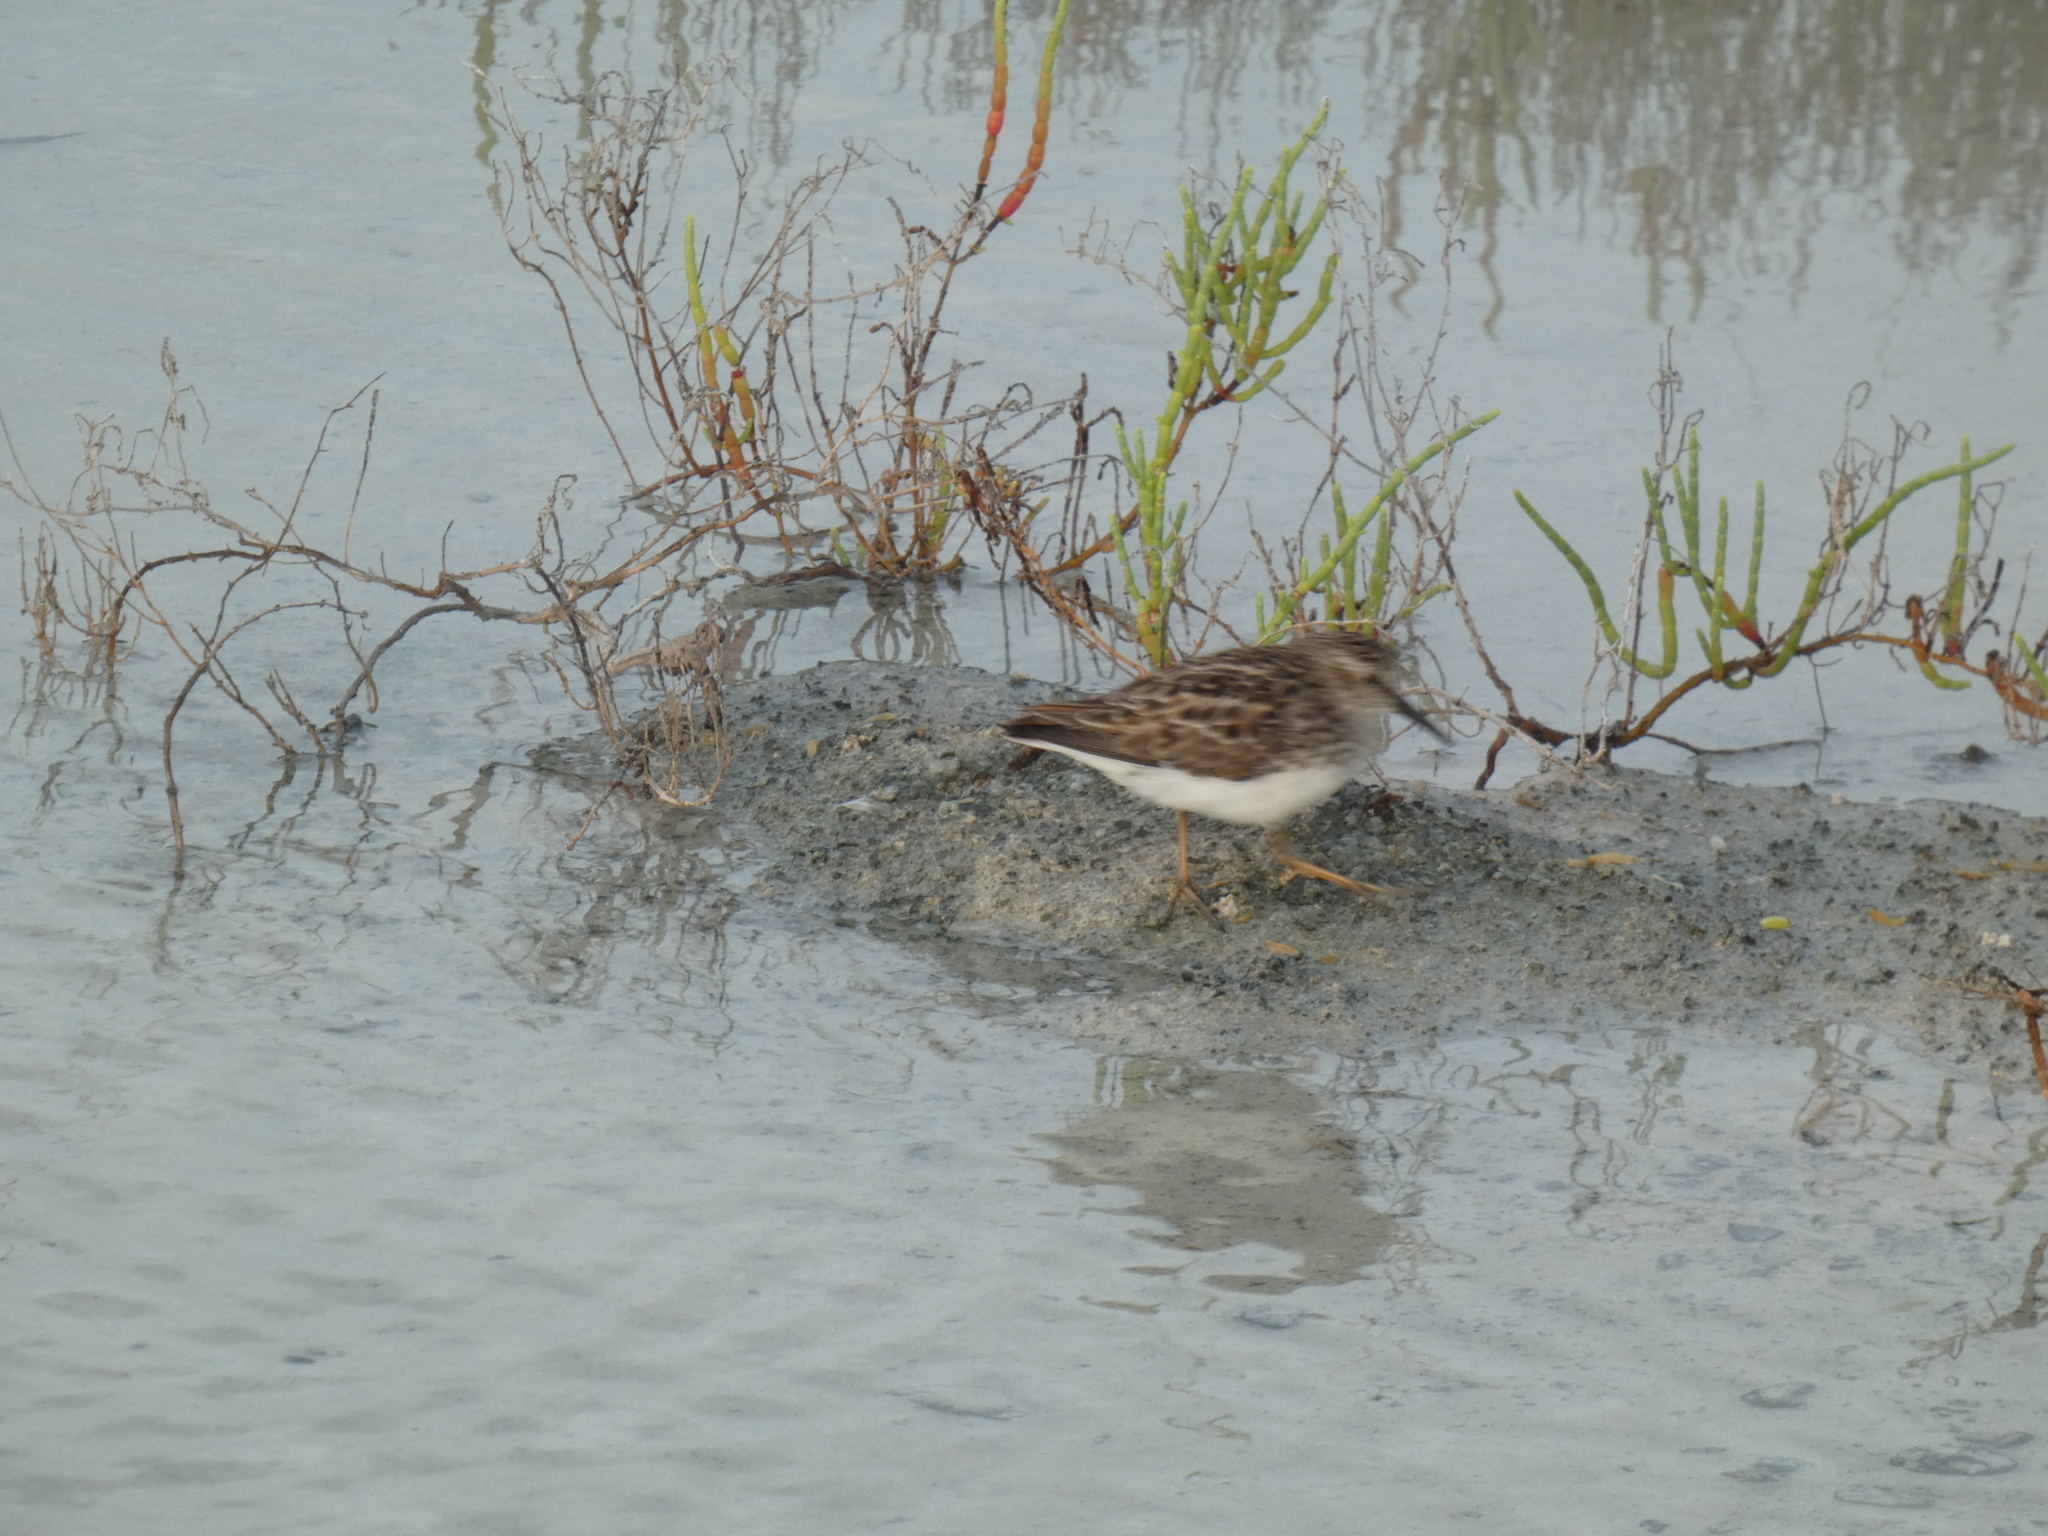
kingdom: Animalia
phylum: Chordata
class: Aves
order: Charadriiformes
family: Scolopacidae
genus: Calidris
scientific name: Calidris minutilla
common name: Least sandpiper
